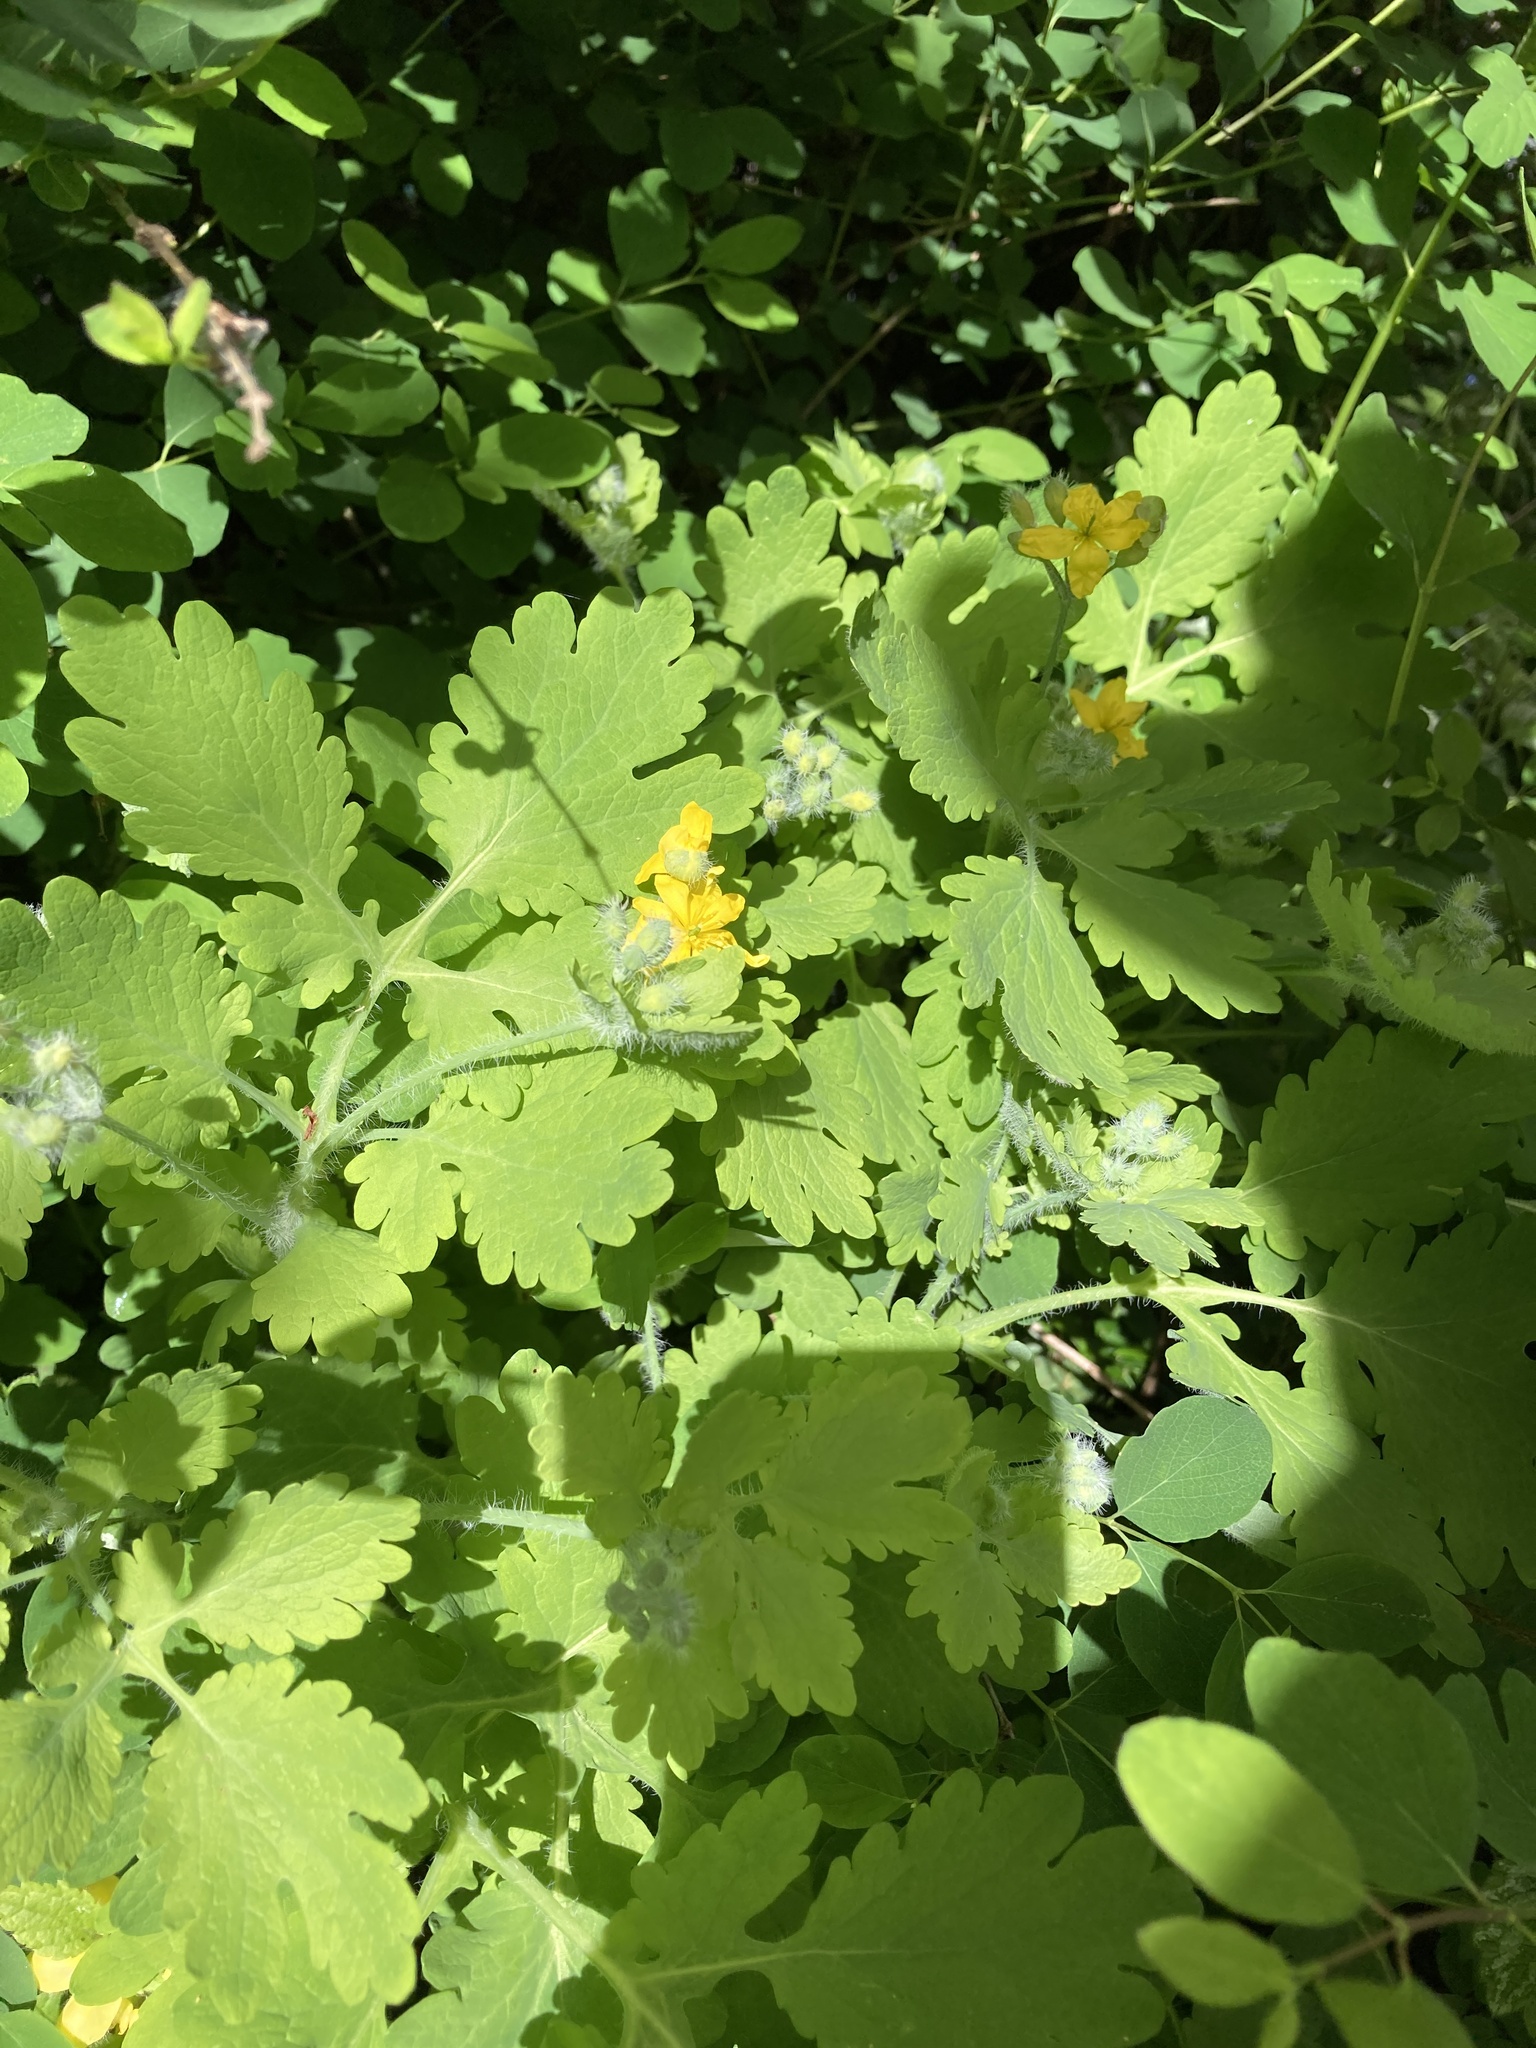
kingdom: Plantae
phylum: Tracheophyta
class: Magnoliopsida
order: Ranunculales
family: Papaveraceae
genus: Chelidonium
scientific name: Chelidonium majus
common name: Greater celandine
